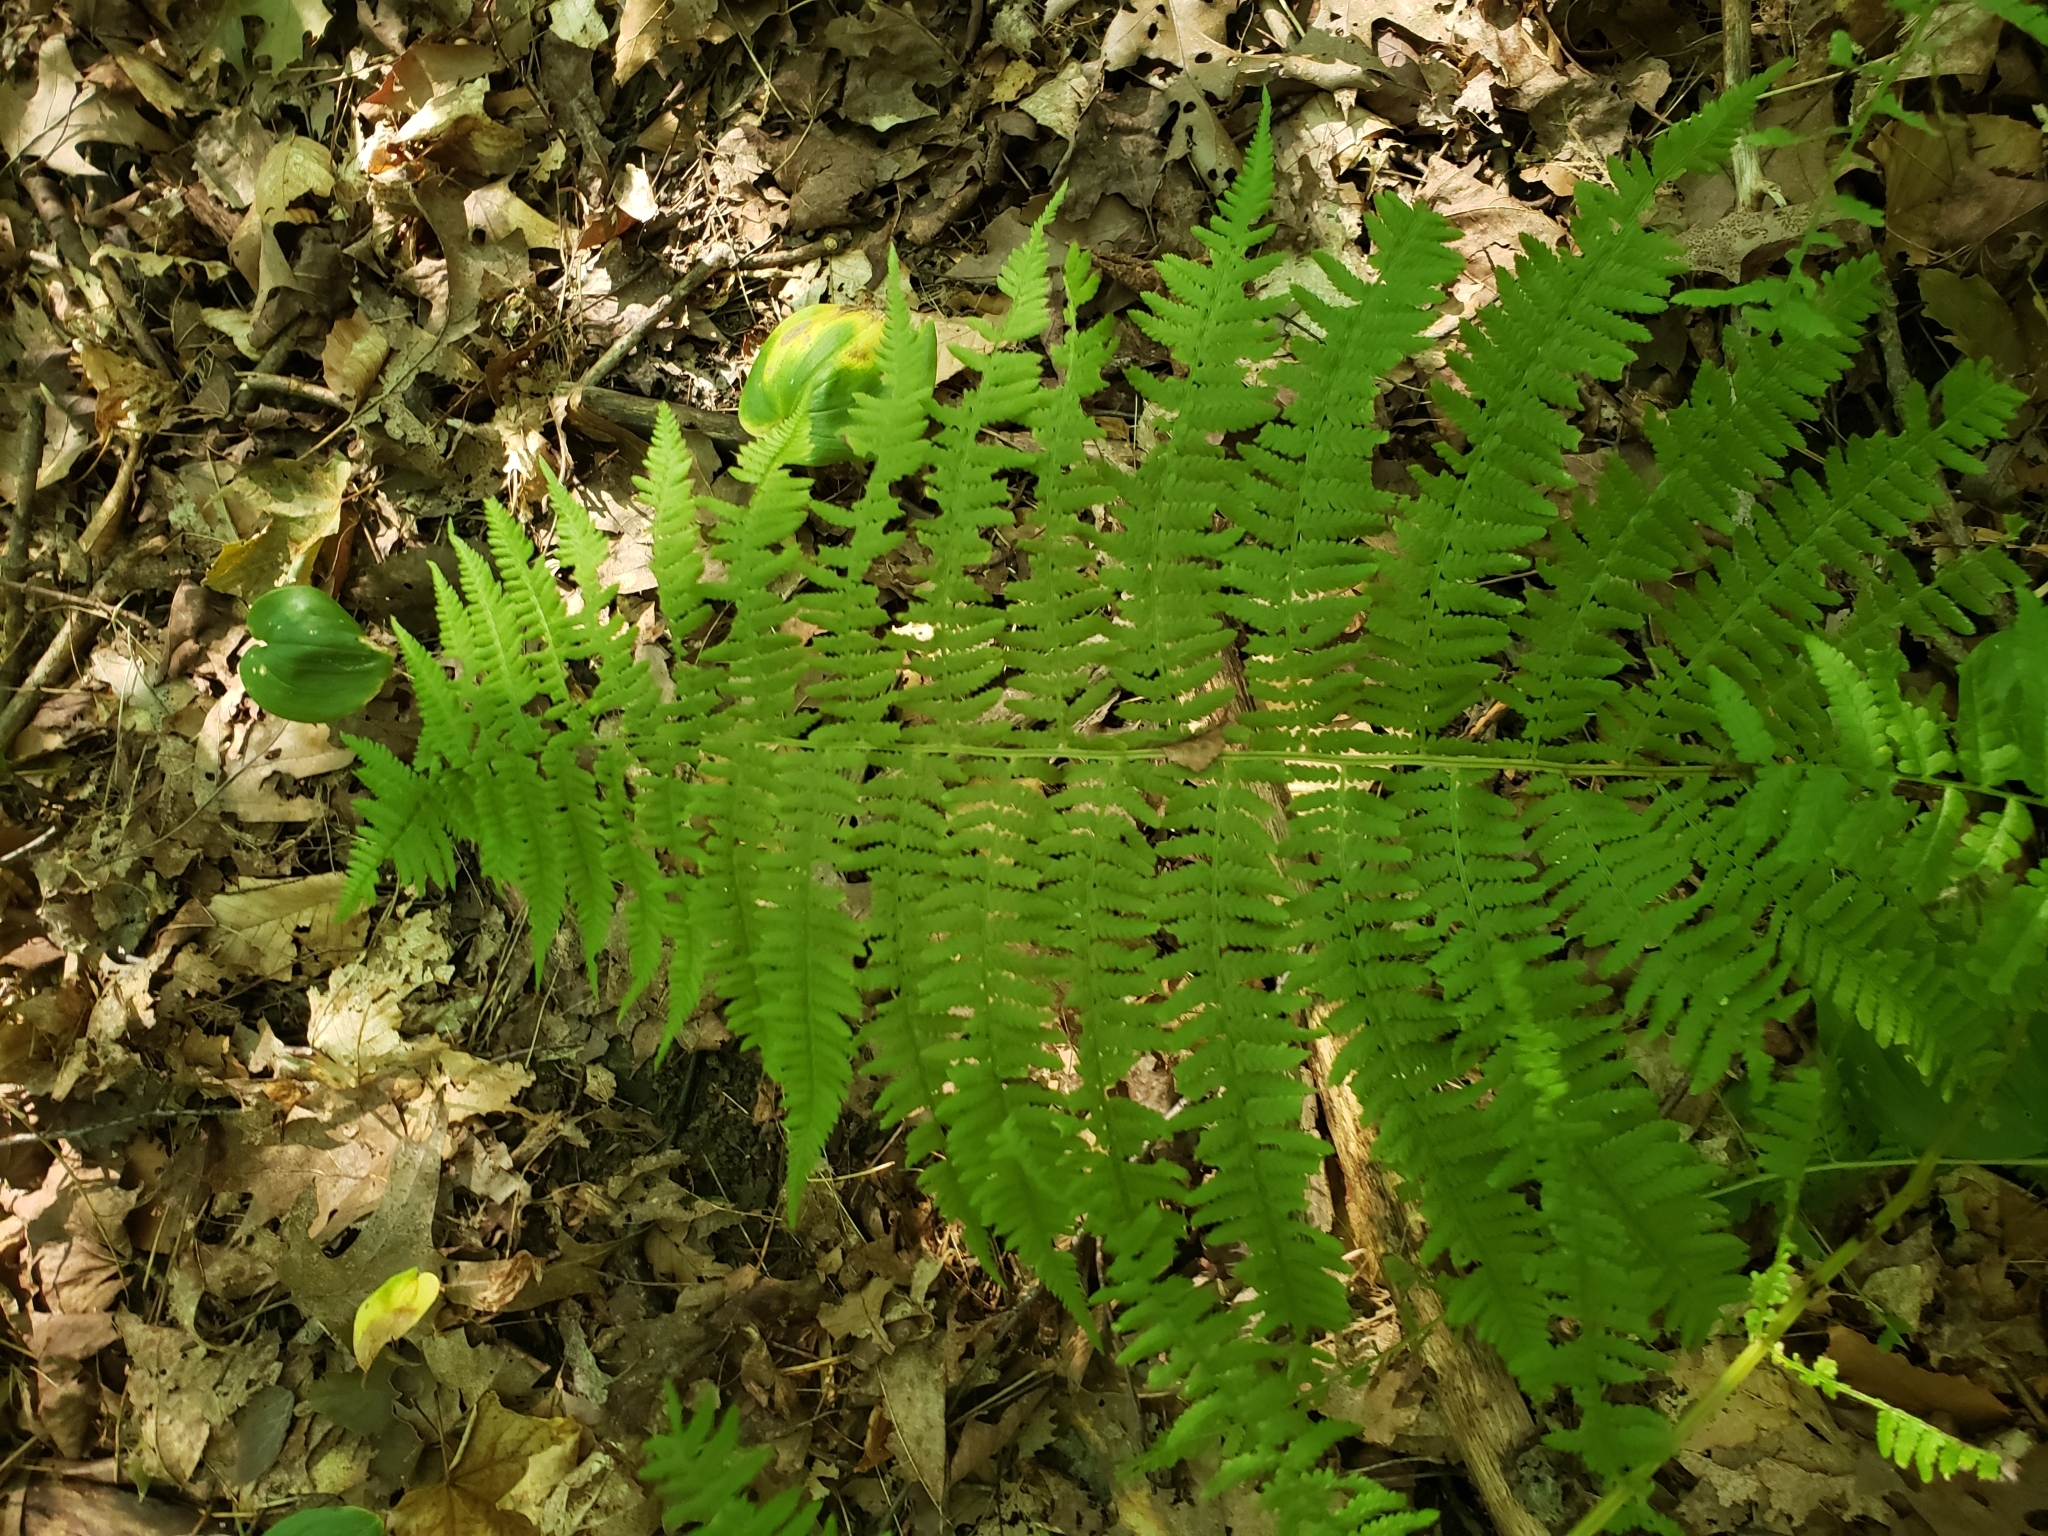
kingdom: Plantae
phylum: Tracheophyta
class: Polypodiopsida
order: Polypodiales
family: Athyriaceae
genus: Athyrium
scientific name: Athyrium angustum
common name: Northern lady fern
